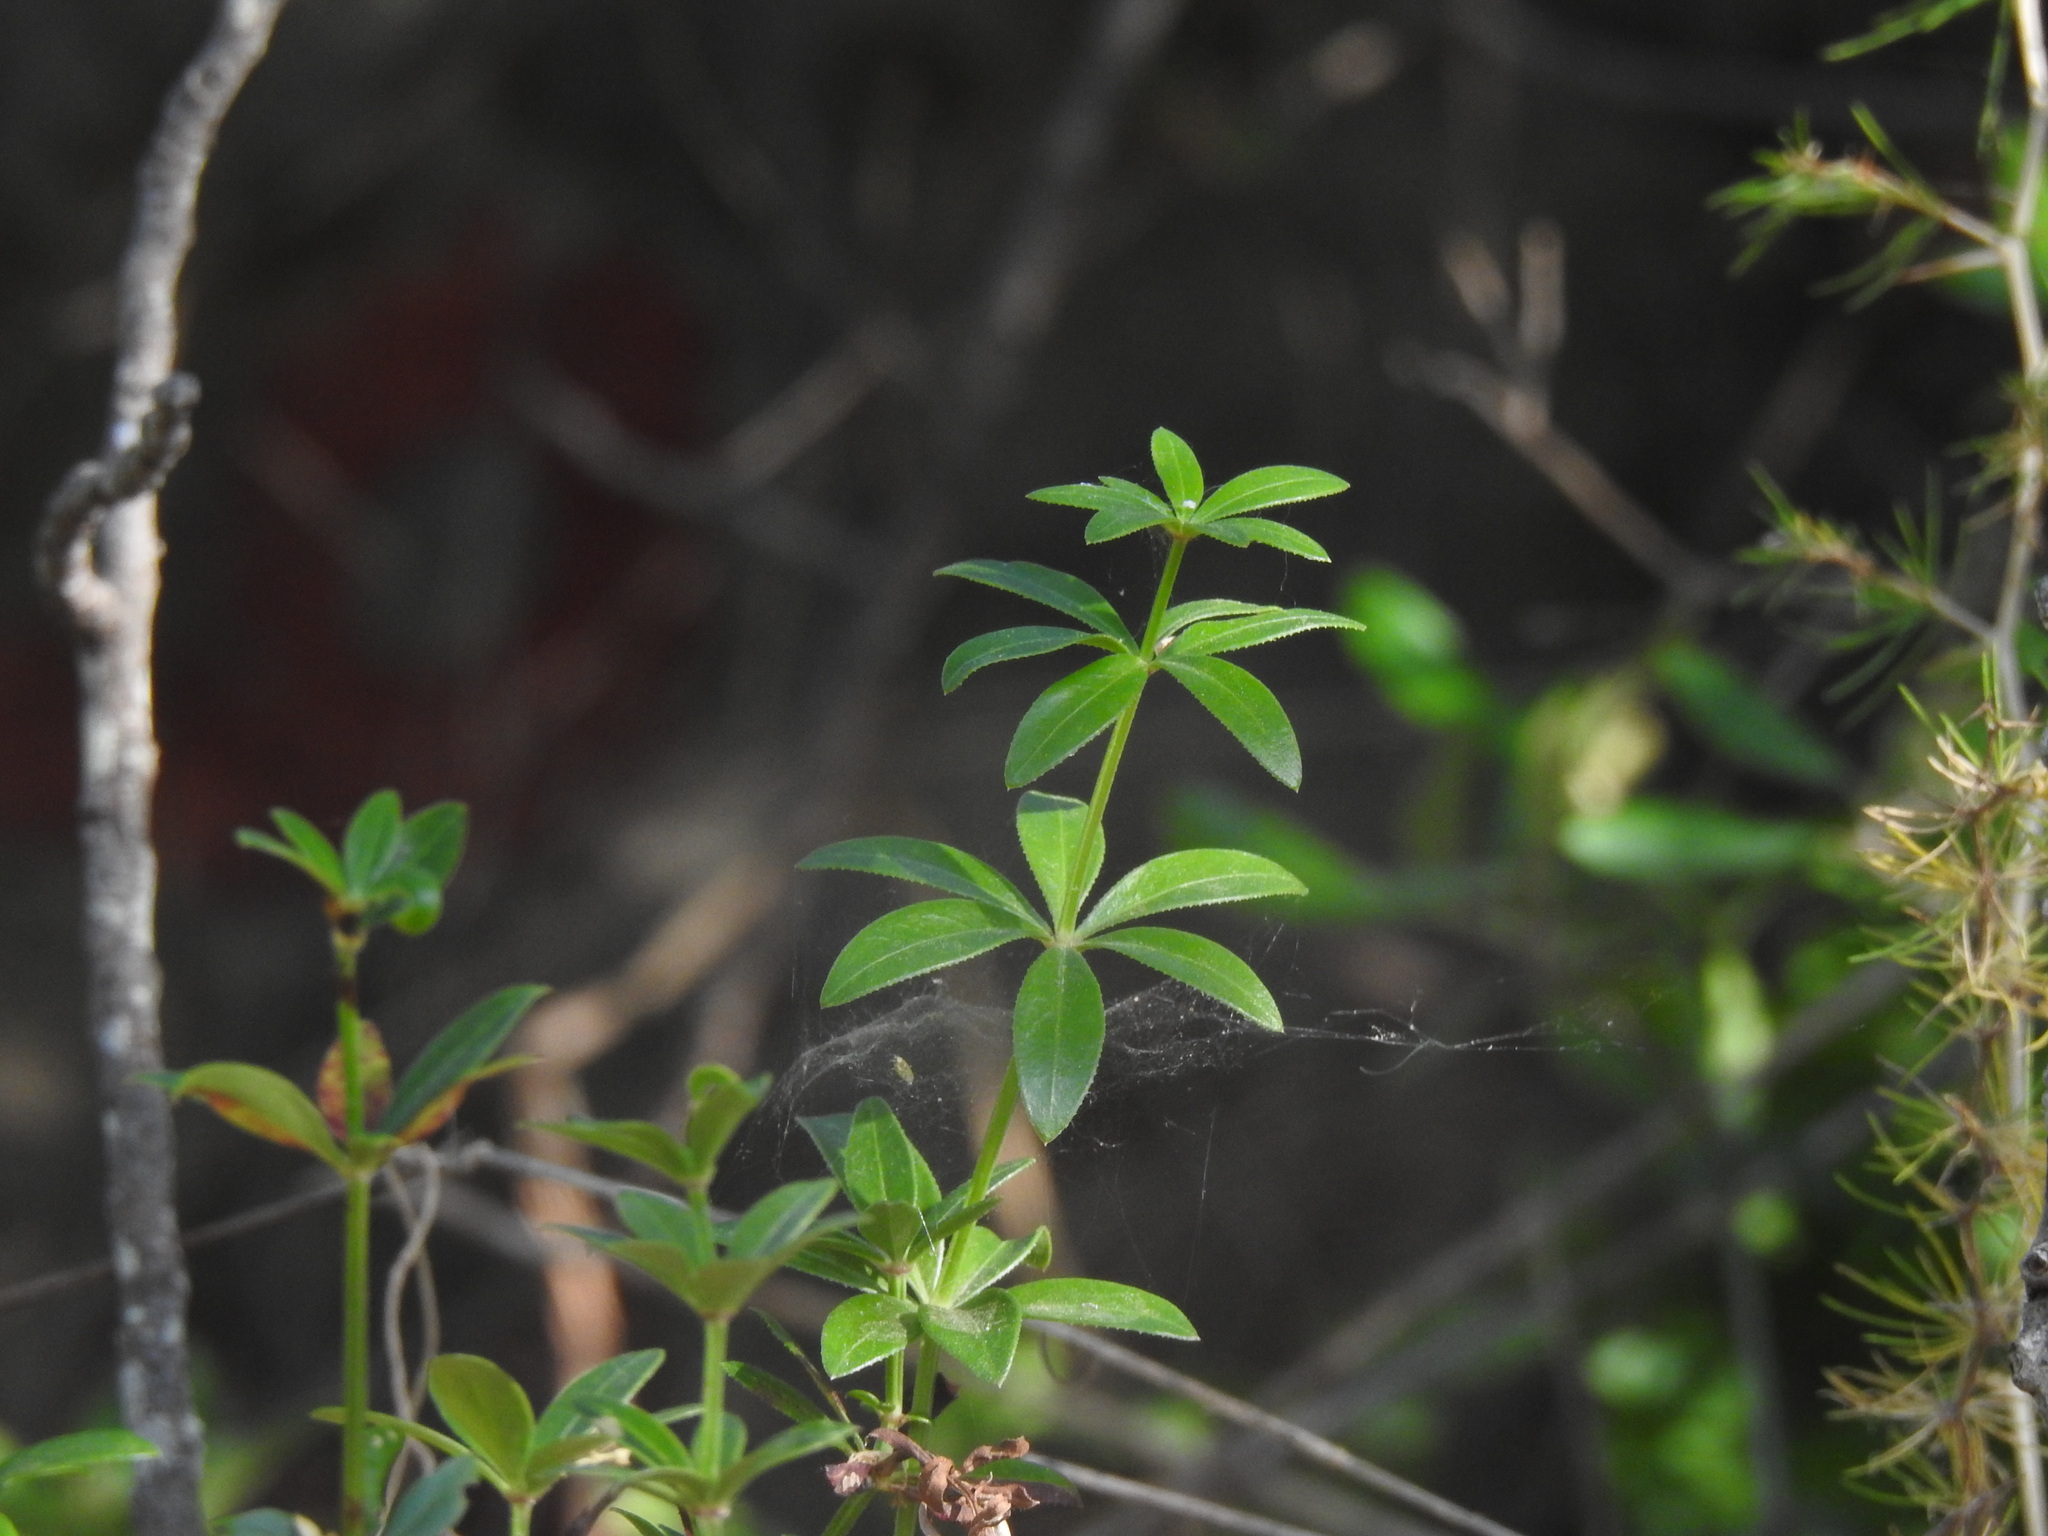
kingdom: Plantae
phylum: Tracheophyta
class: Magnoliopsida
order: Gentianales
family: Rubiaceae
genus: Rubia
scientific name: Rubia peregrina
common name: Wild madder
